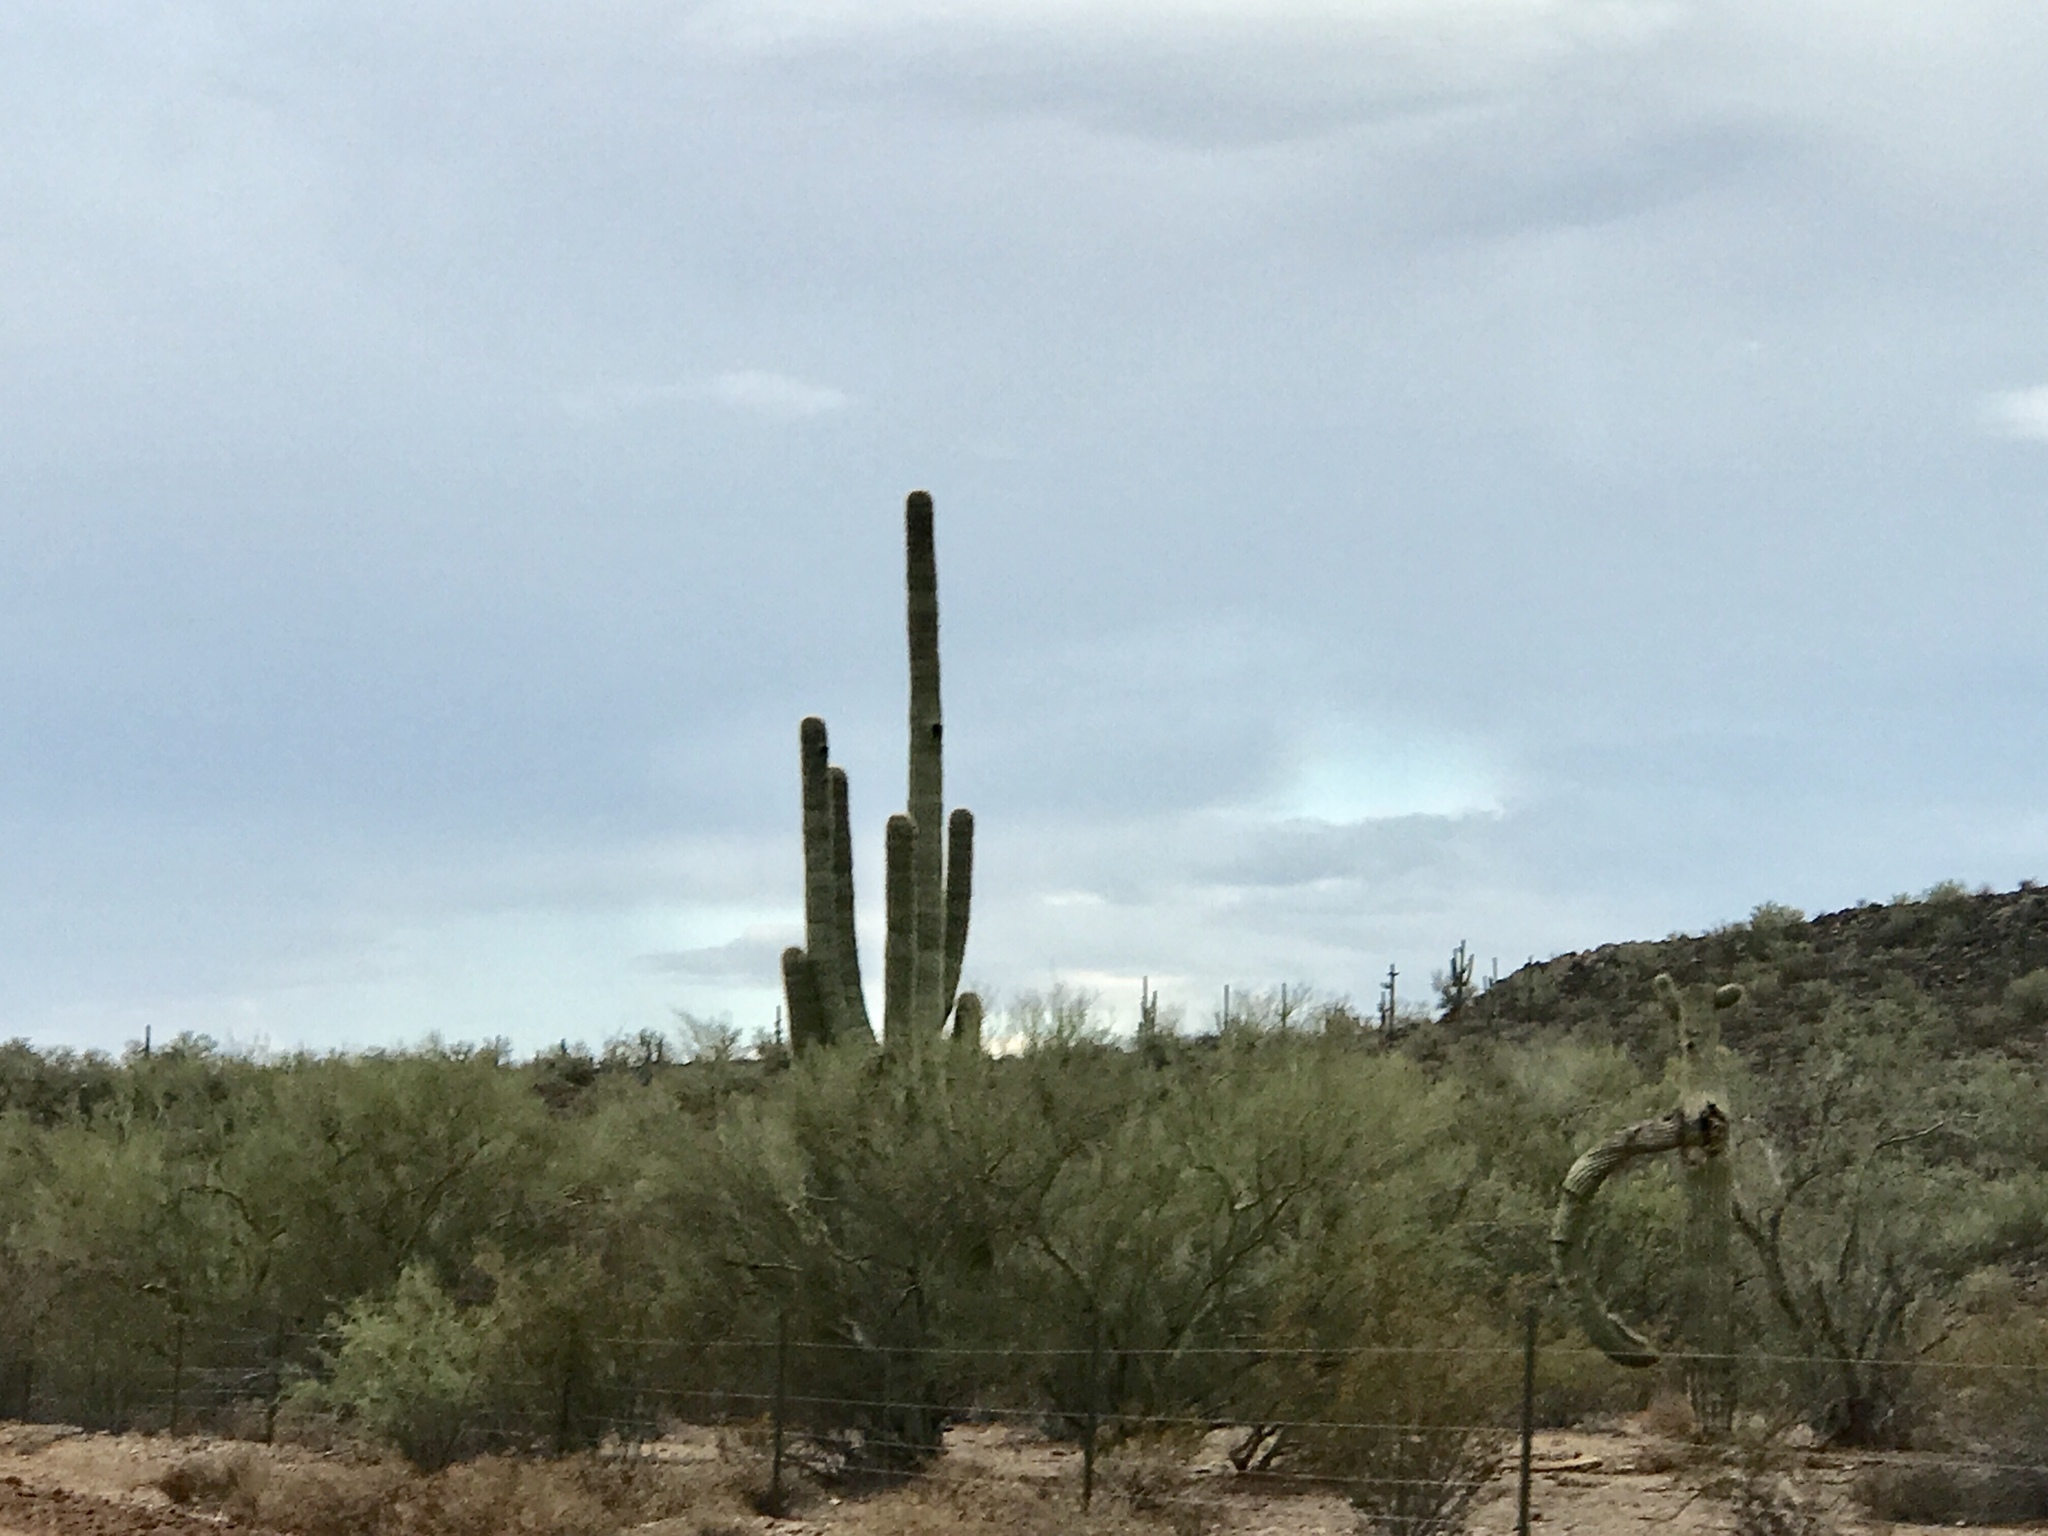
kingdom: Plantae
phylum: Tracheophyta
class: Magnoliopsida
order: Caryophyllales
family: Cactaceae
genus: Carnegiea
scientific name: Carnegiea gigantea
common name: Saguaro
